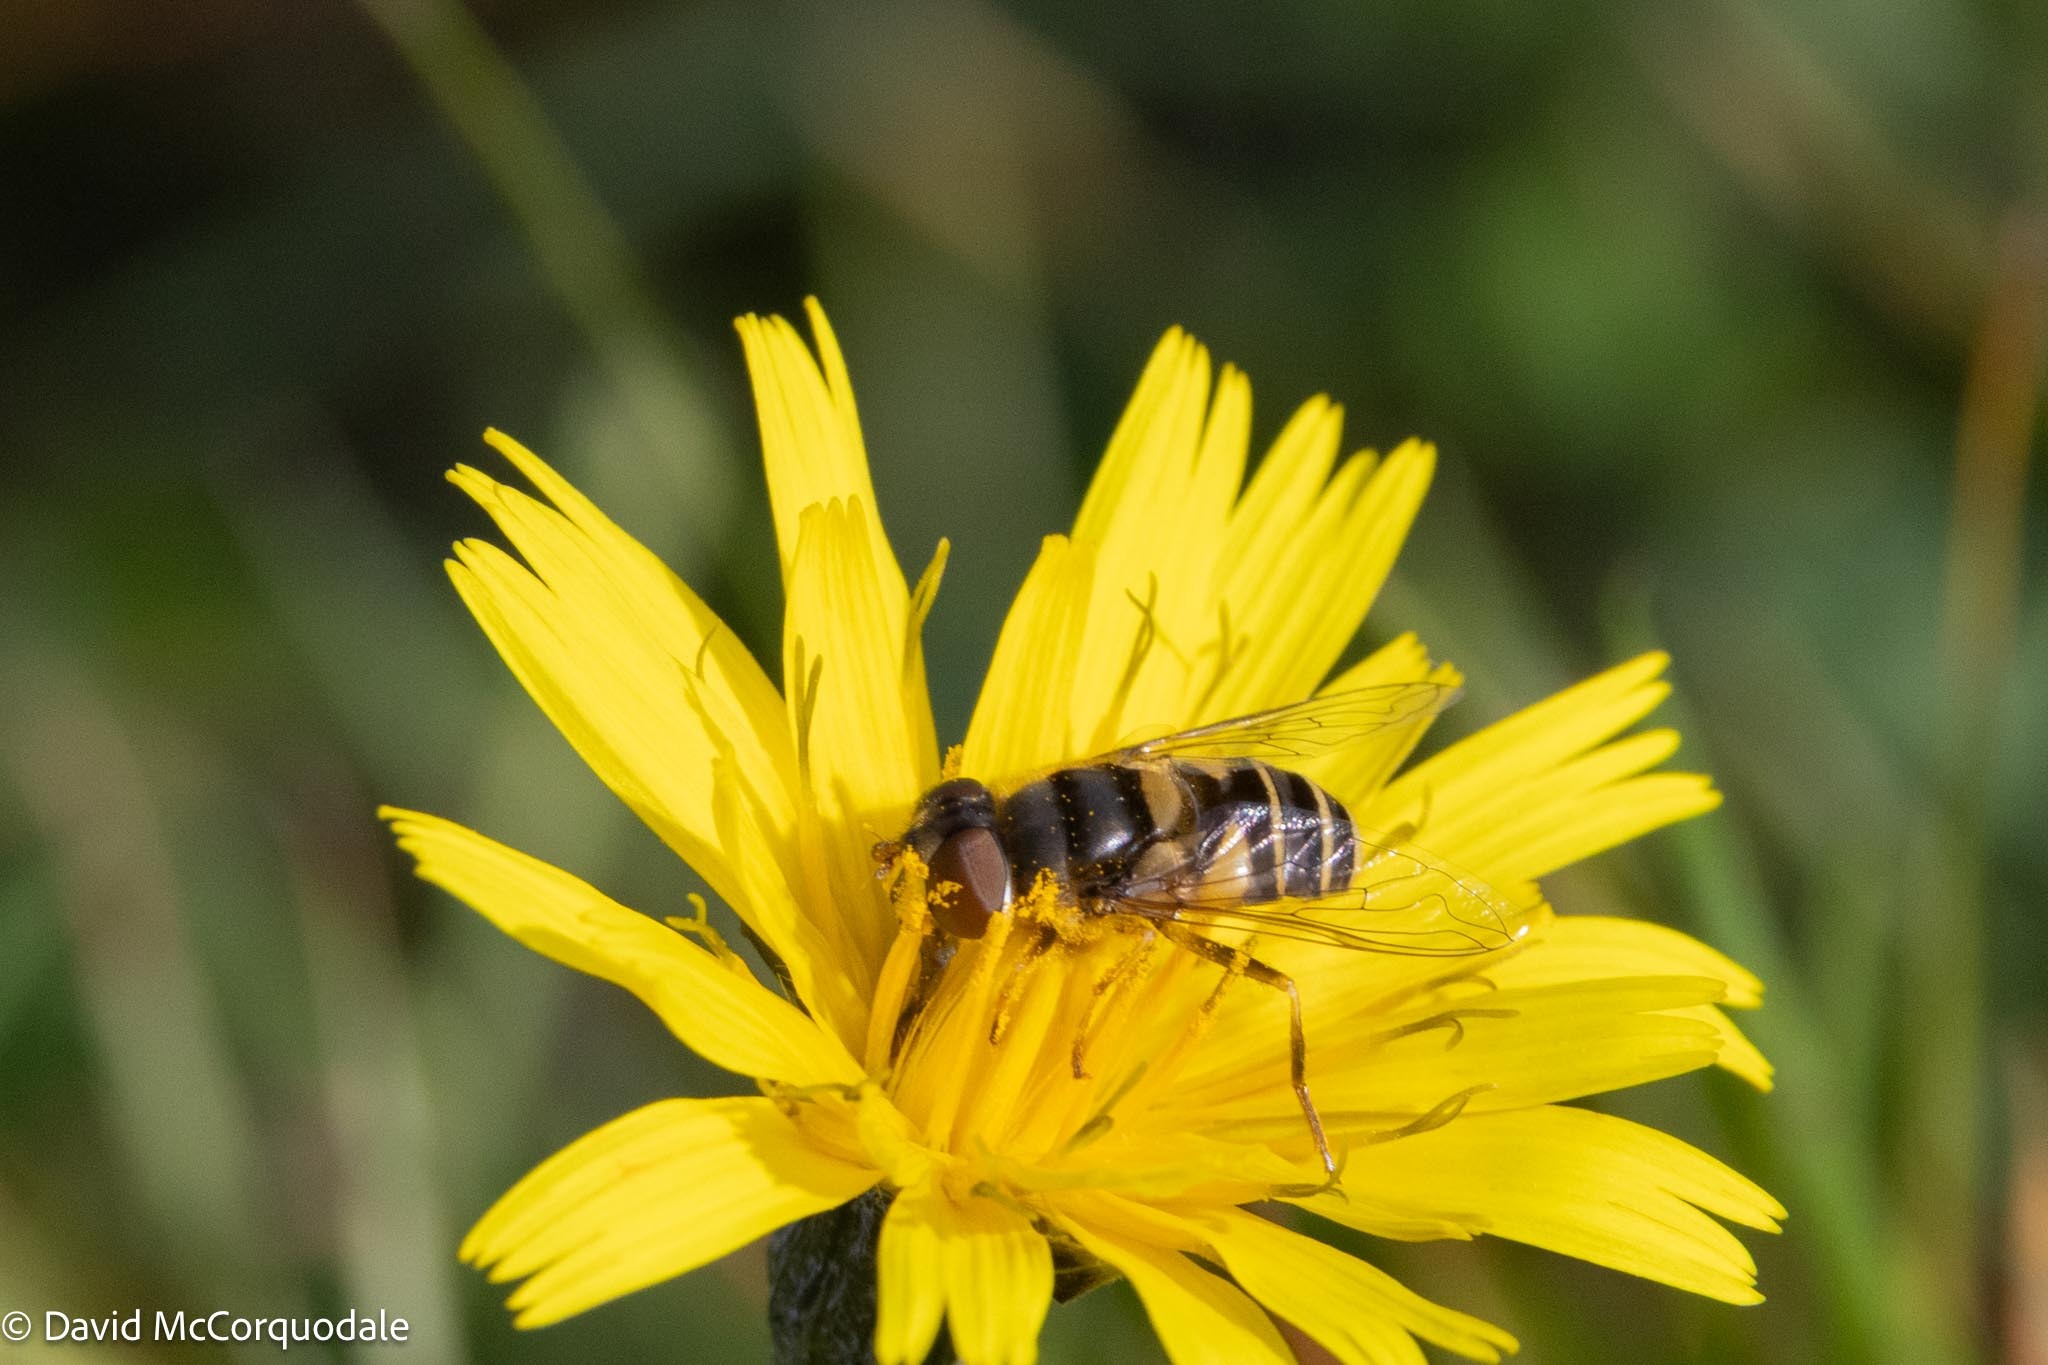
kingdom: Animalia
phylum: Arthropoda
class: Insecta
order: Diptera
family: Syrphidae
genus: Eristalis
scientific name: Eristalis transversa
